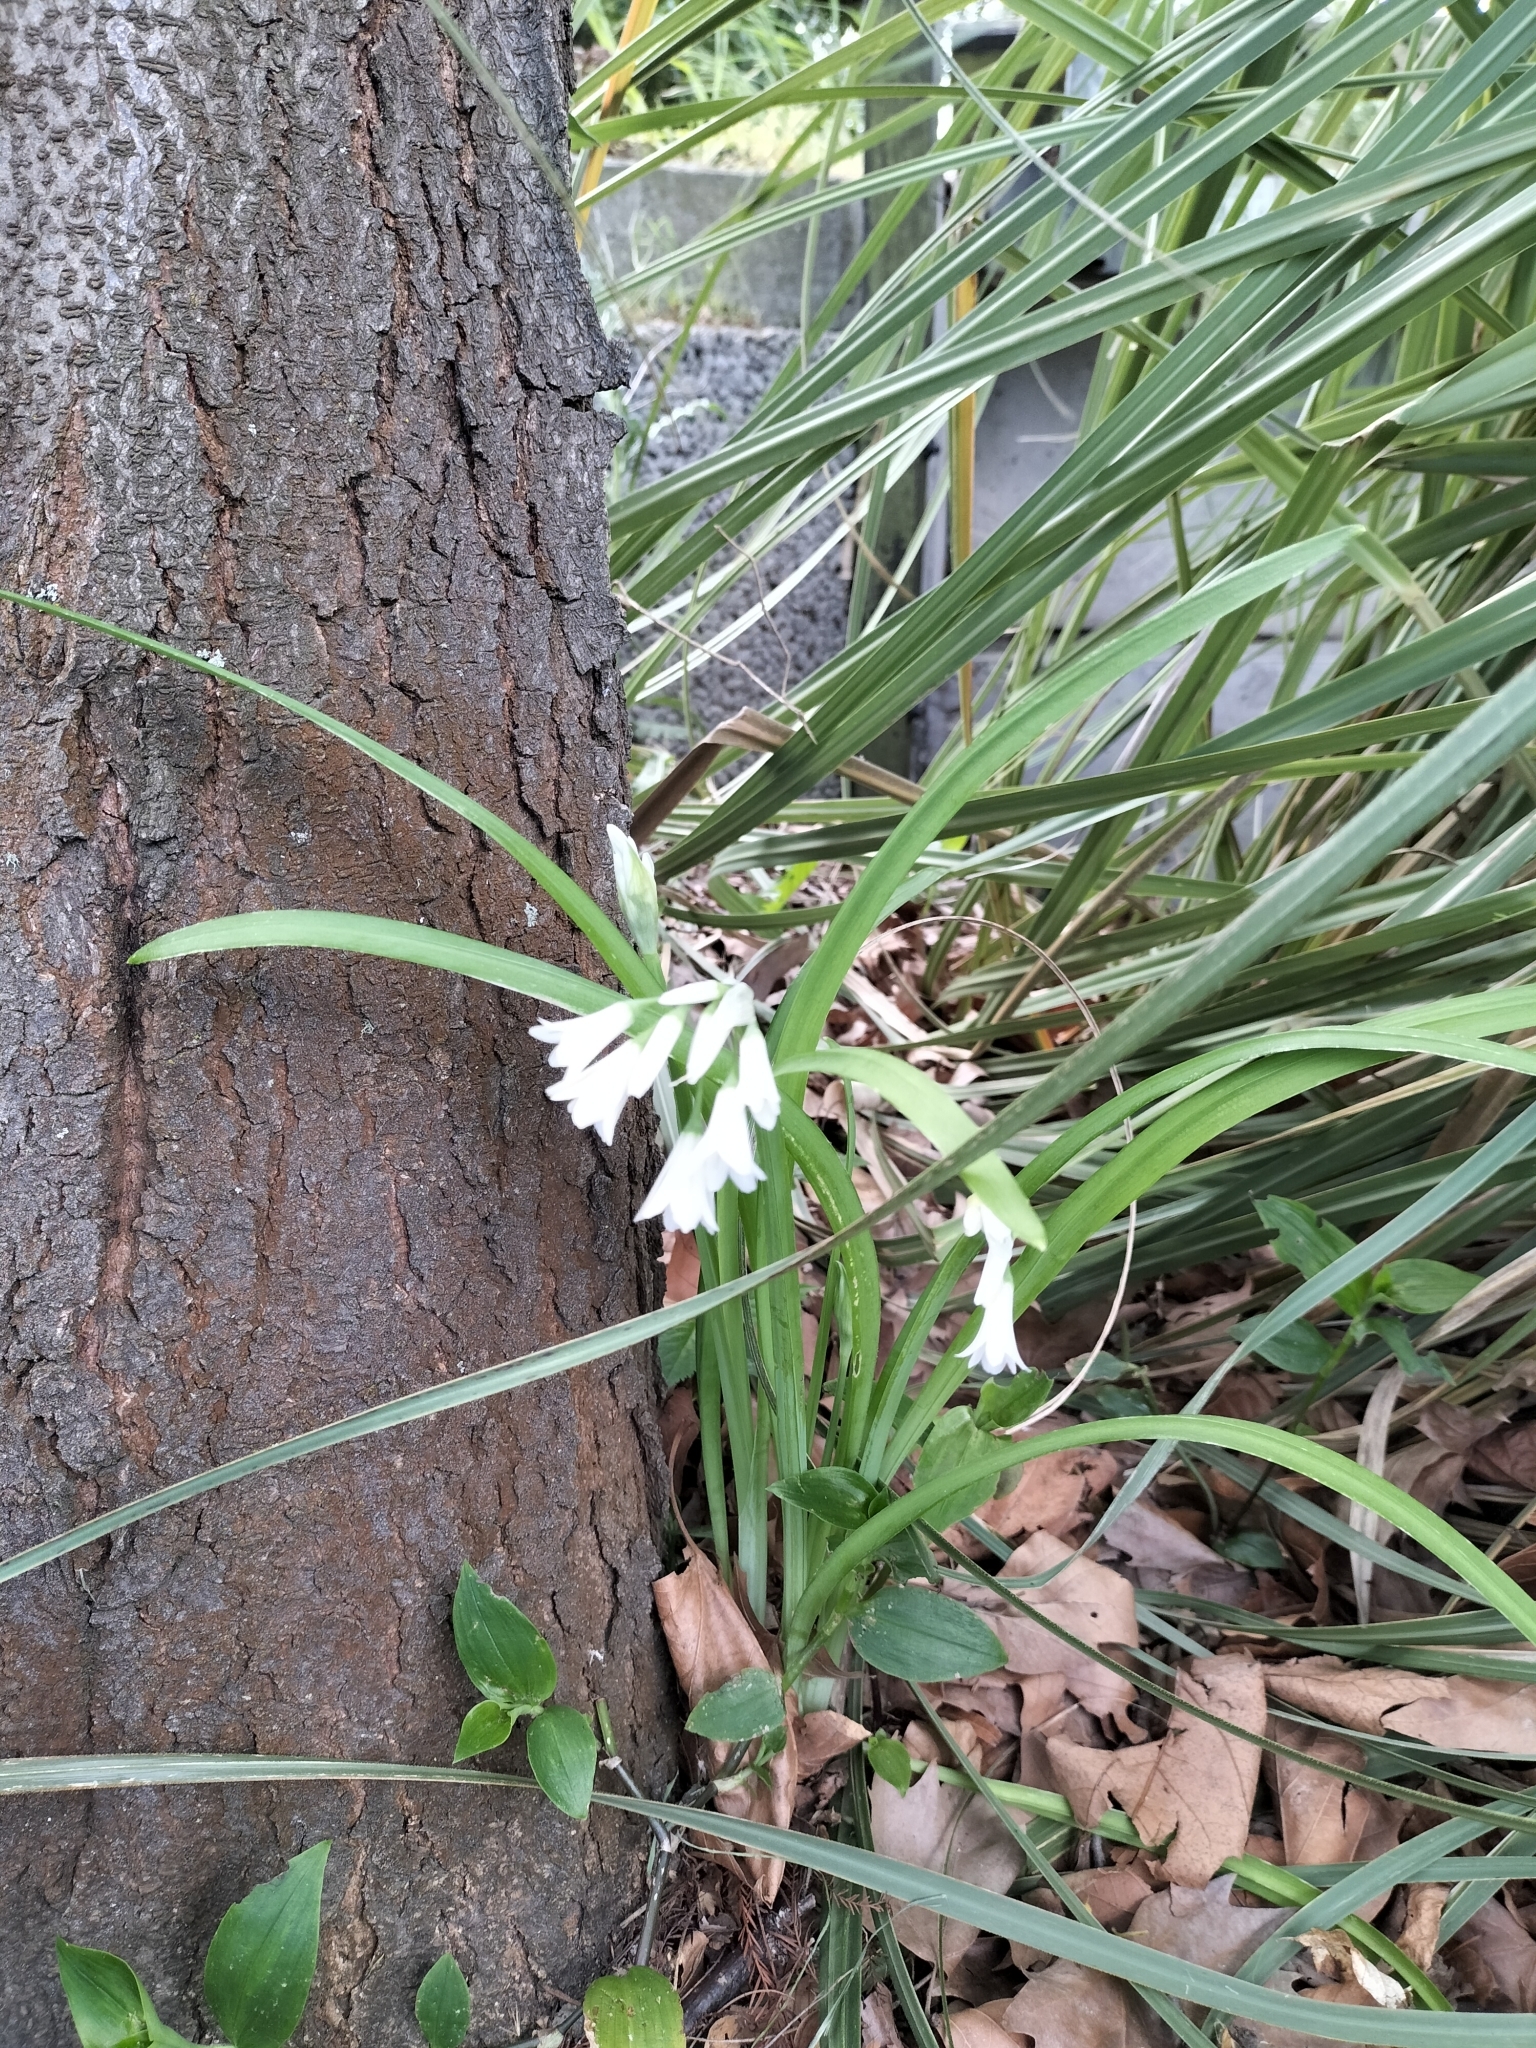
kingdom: Plantae
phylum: Tracheophyta
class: Liliopsida
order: Asparagales
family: Amaryllidaceae
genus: Allium
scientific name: Allium triquetrum
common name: Three-cornered garlic
